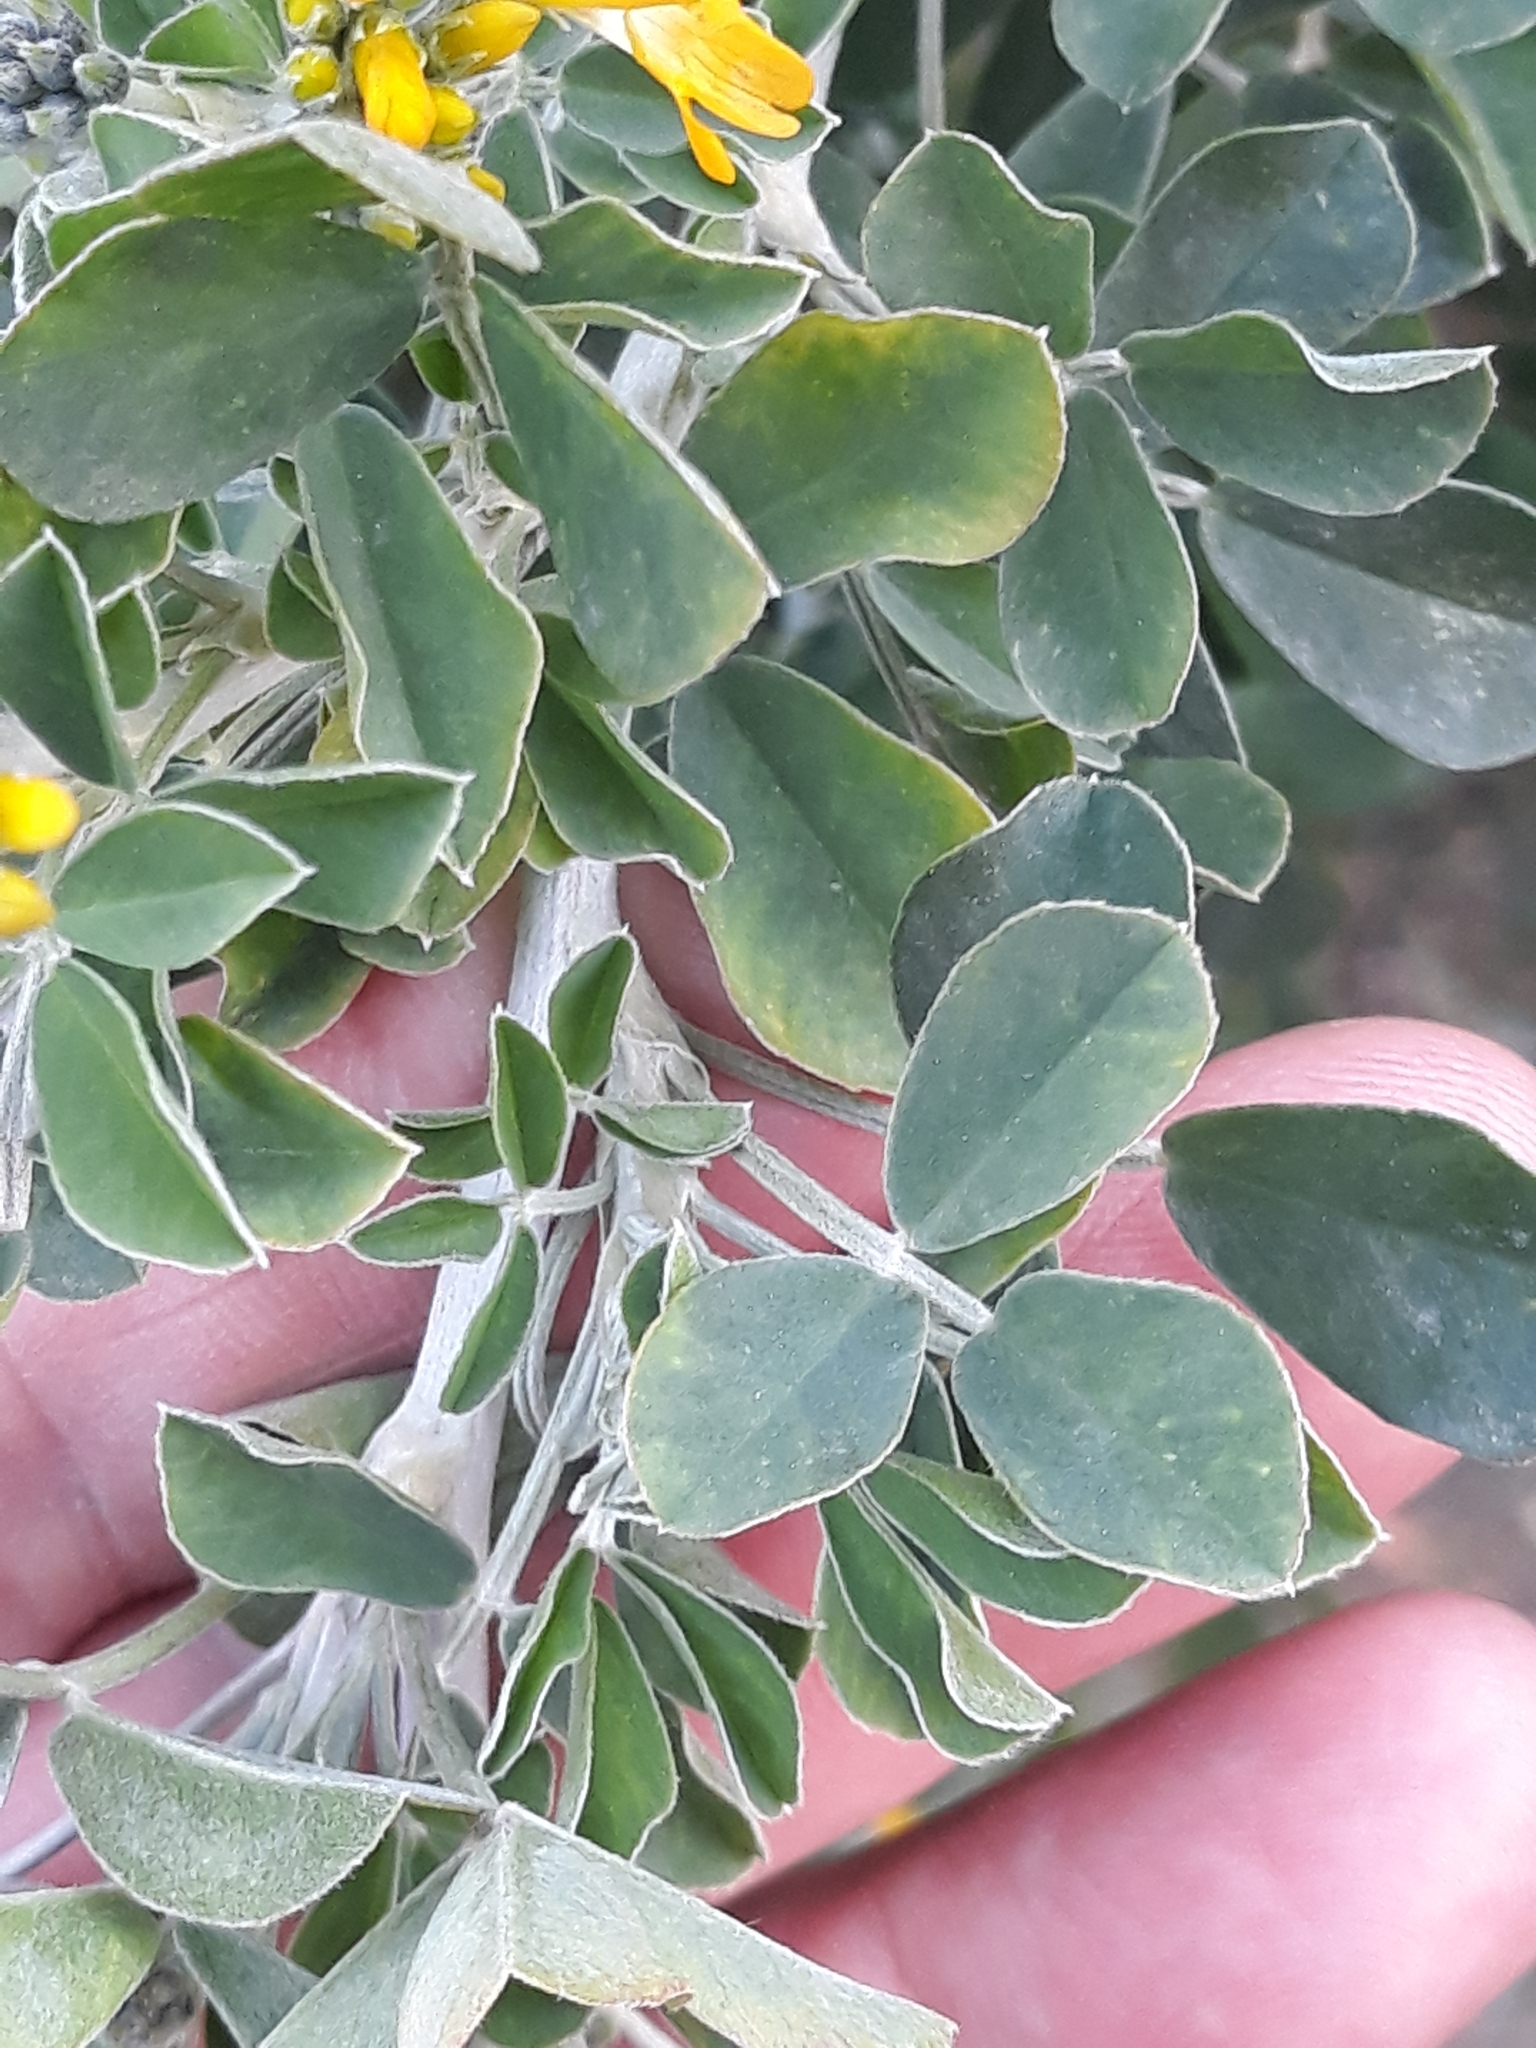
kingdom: Plantae
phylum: Tracheophyta
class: Magnoliopsida
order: Fabales
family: Fabaceae
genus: Medicago
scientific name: Medicago arborea
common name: Moon trefoil
